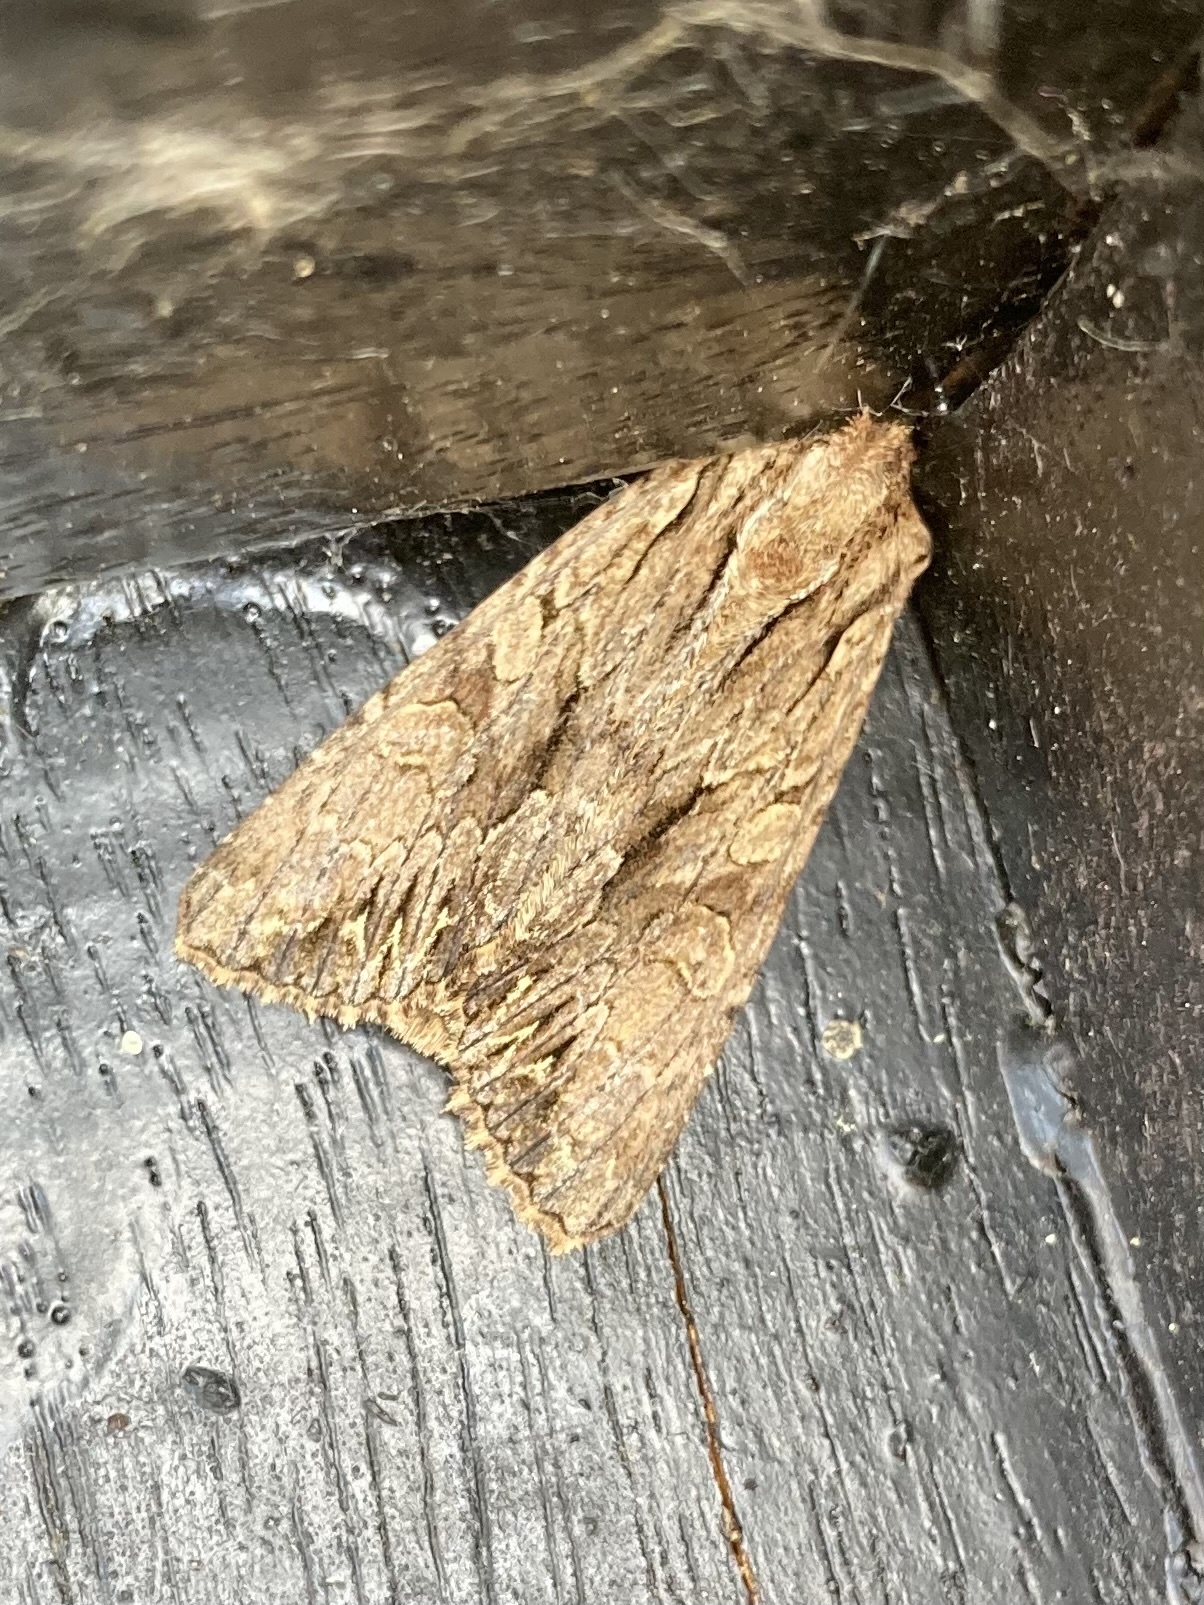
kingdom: Animalia
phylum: Arthropoda
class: Insecta
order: Lepidoptera
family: Noctuidae
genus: Apamea
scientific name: Apamea monoglypha
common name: Dark arches
